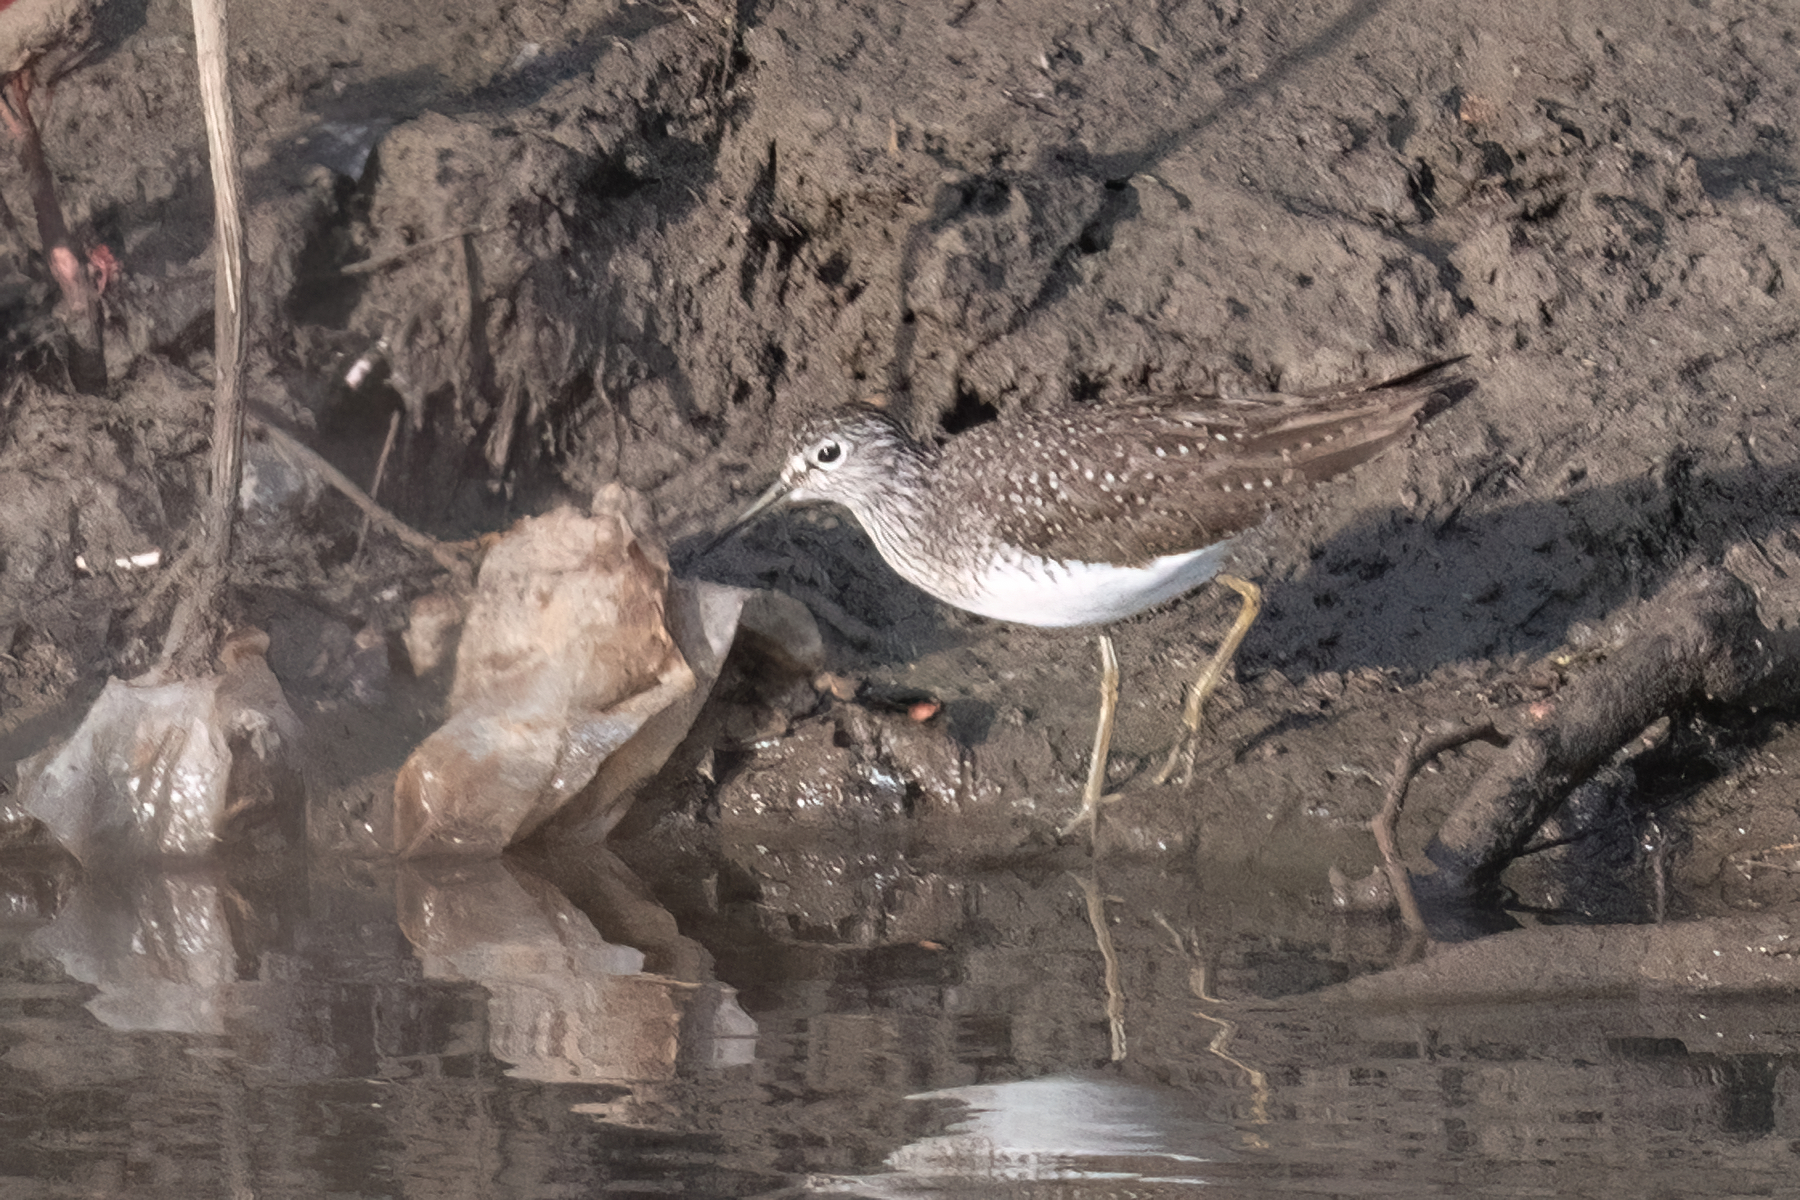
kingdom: Animalia
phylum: Chordata
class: Aves
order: Charadriiformes
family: Scolopacidae
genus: Tringa
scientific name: Tringa solitaria
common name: Solitary sandpiper
